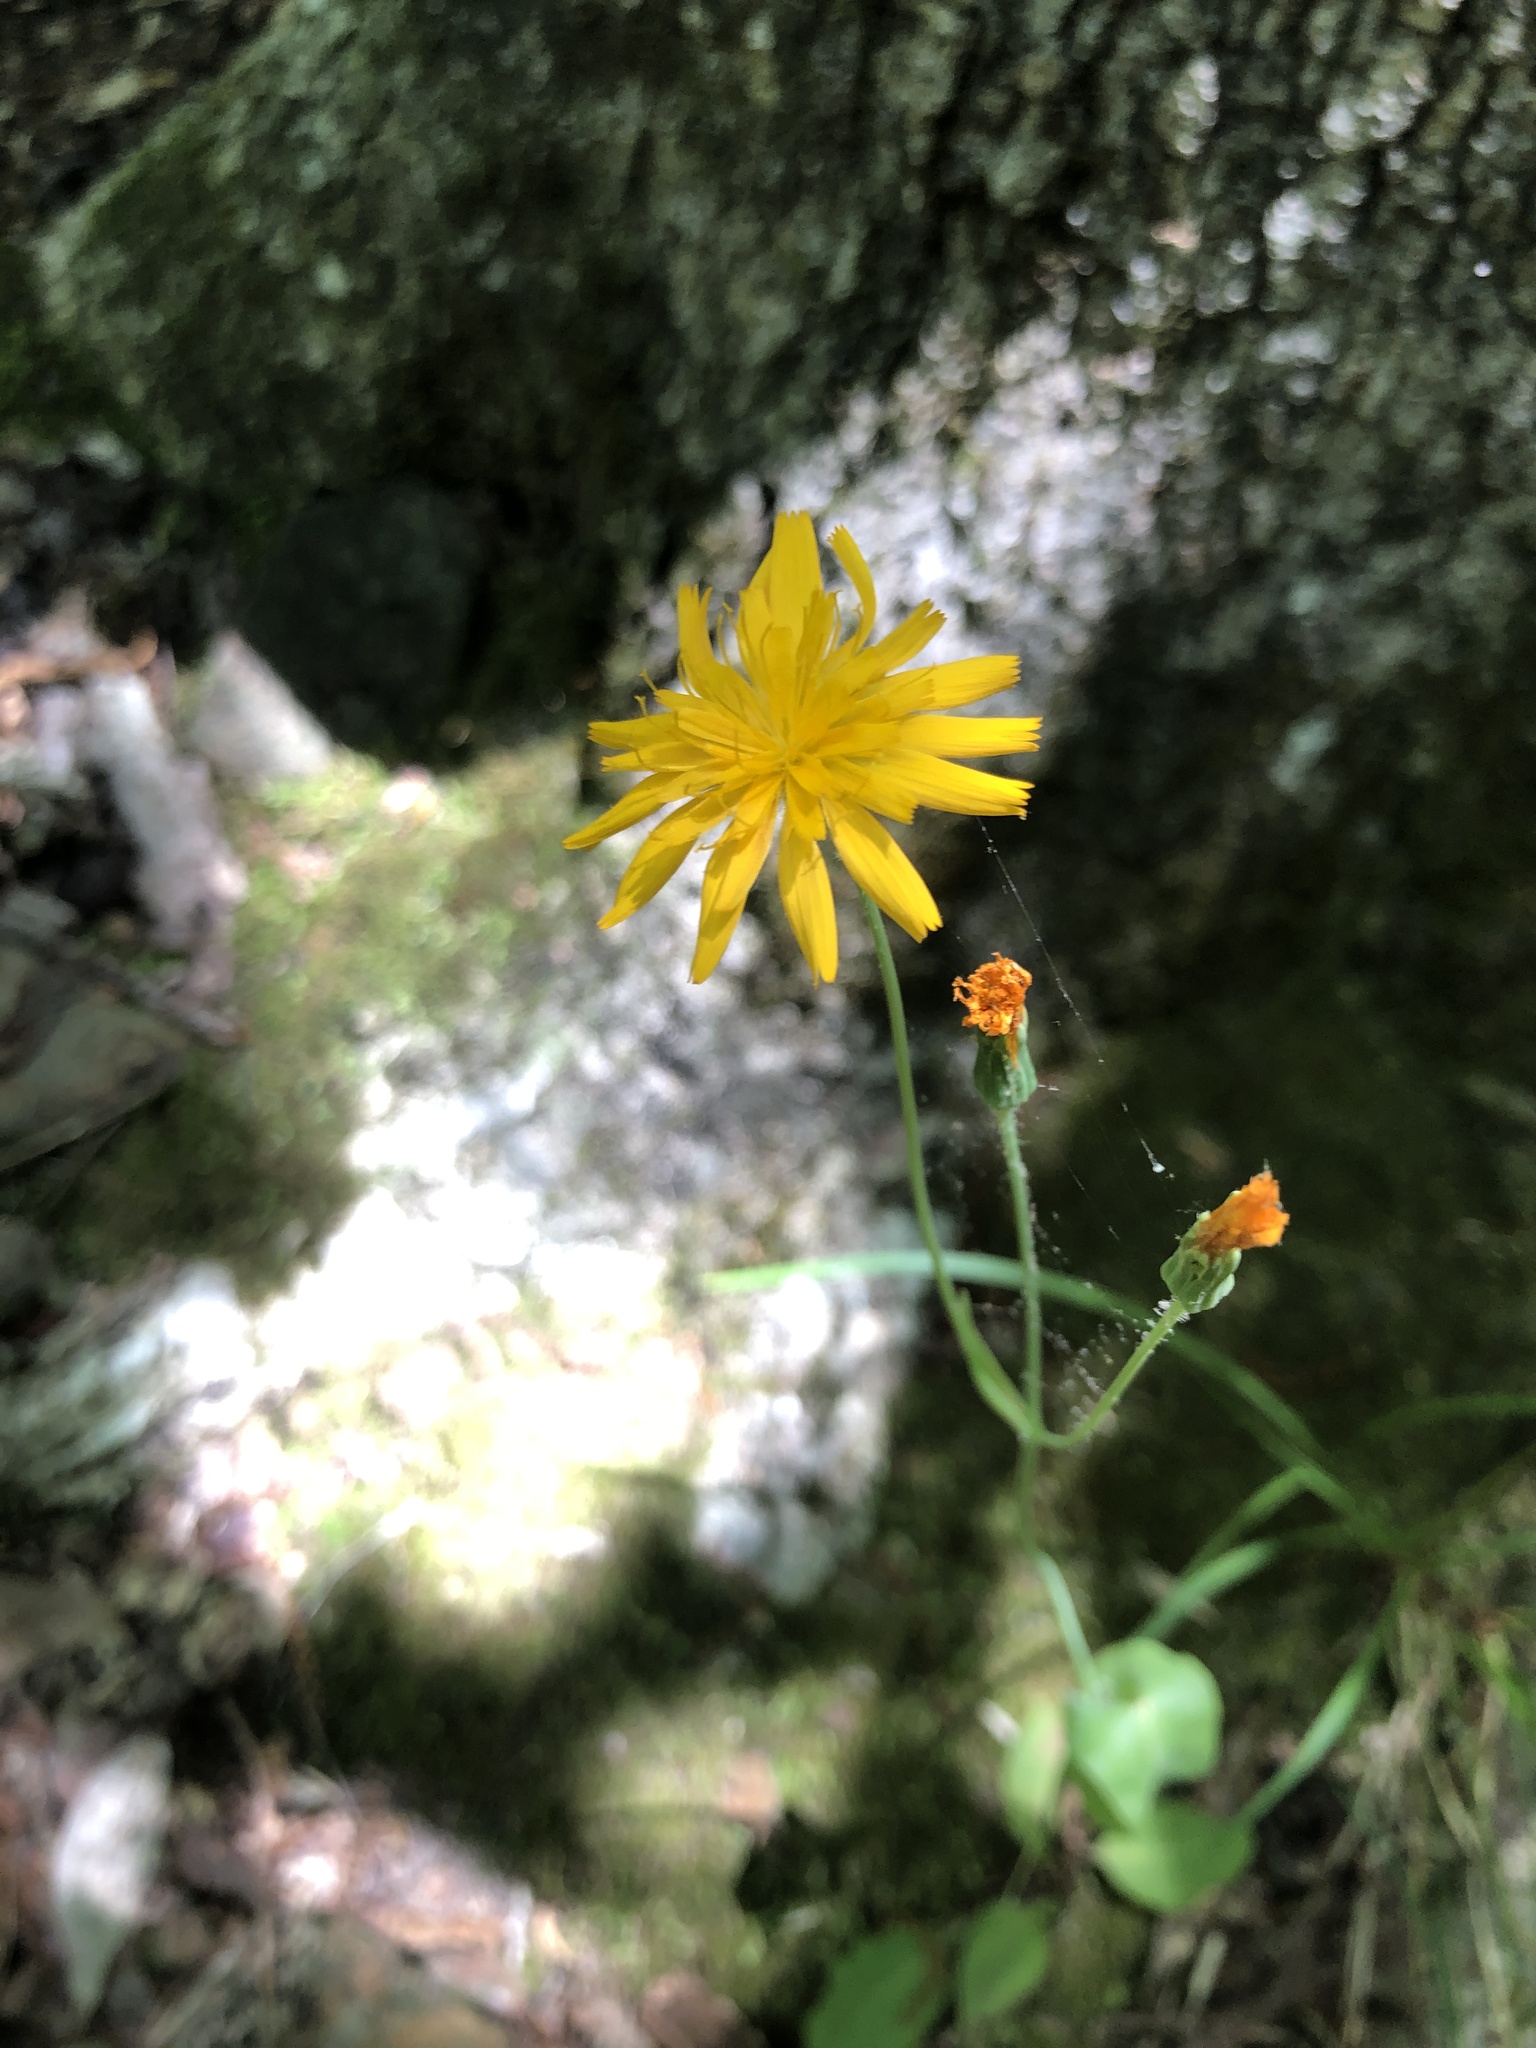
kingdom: Plantae
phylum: Tracheophyta
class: Magnoliopsida
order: Asterales
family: Asteraceae
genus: Krigia
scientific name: Krigia biflora
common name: Orange dwarf-dandelion
